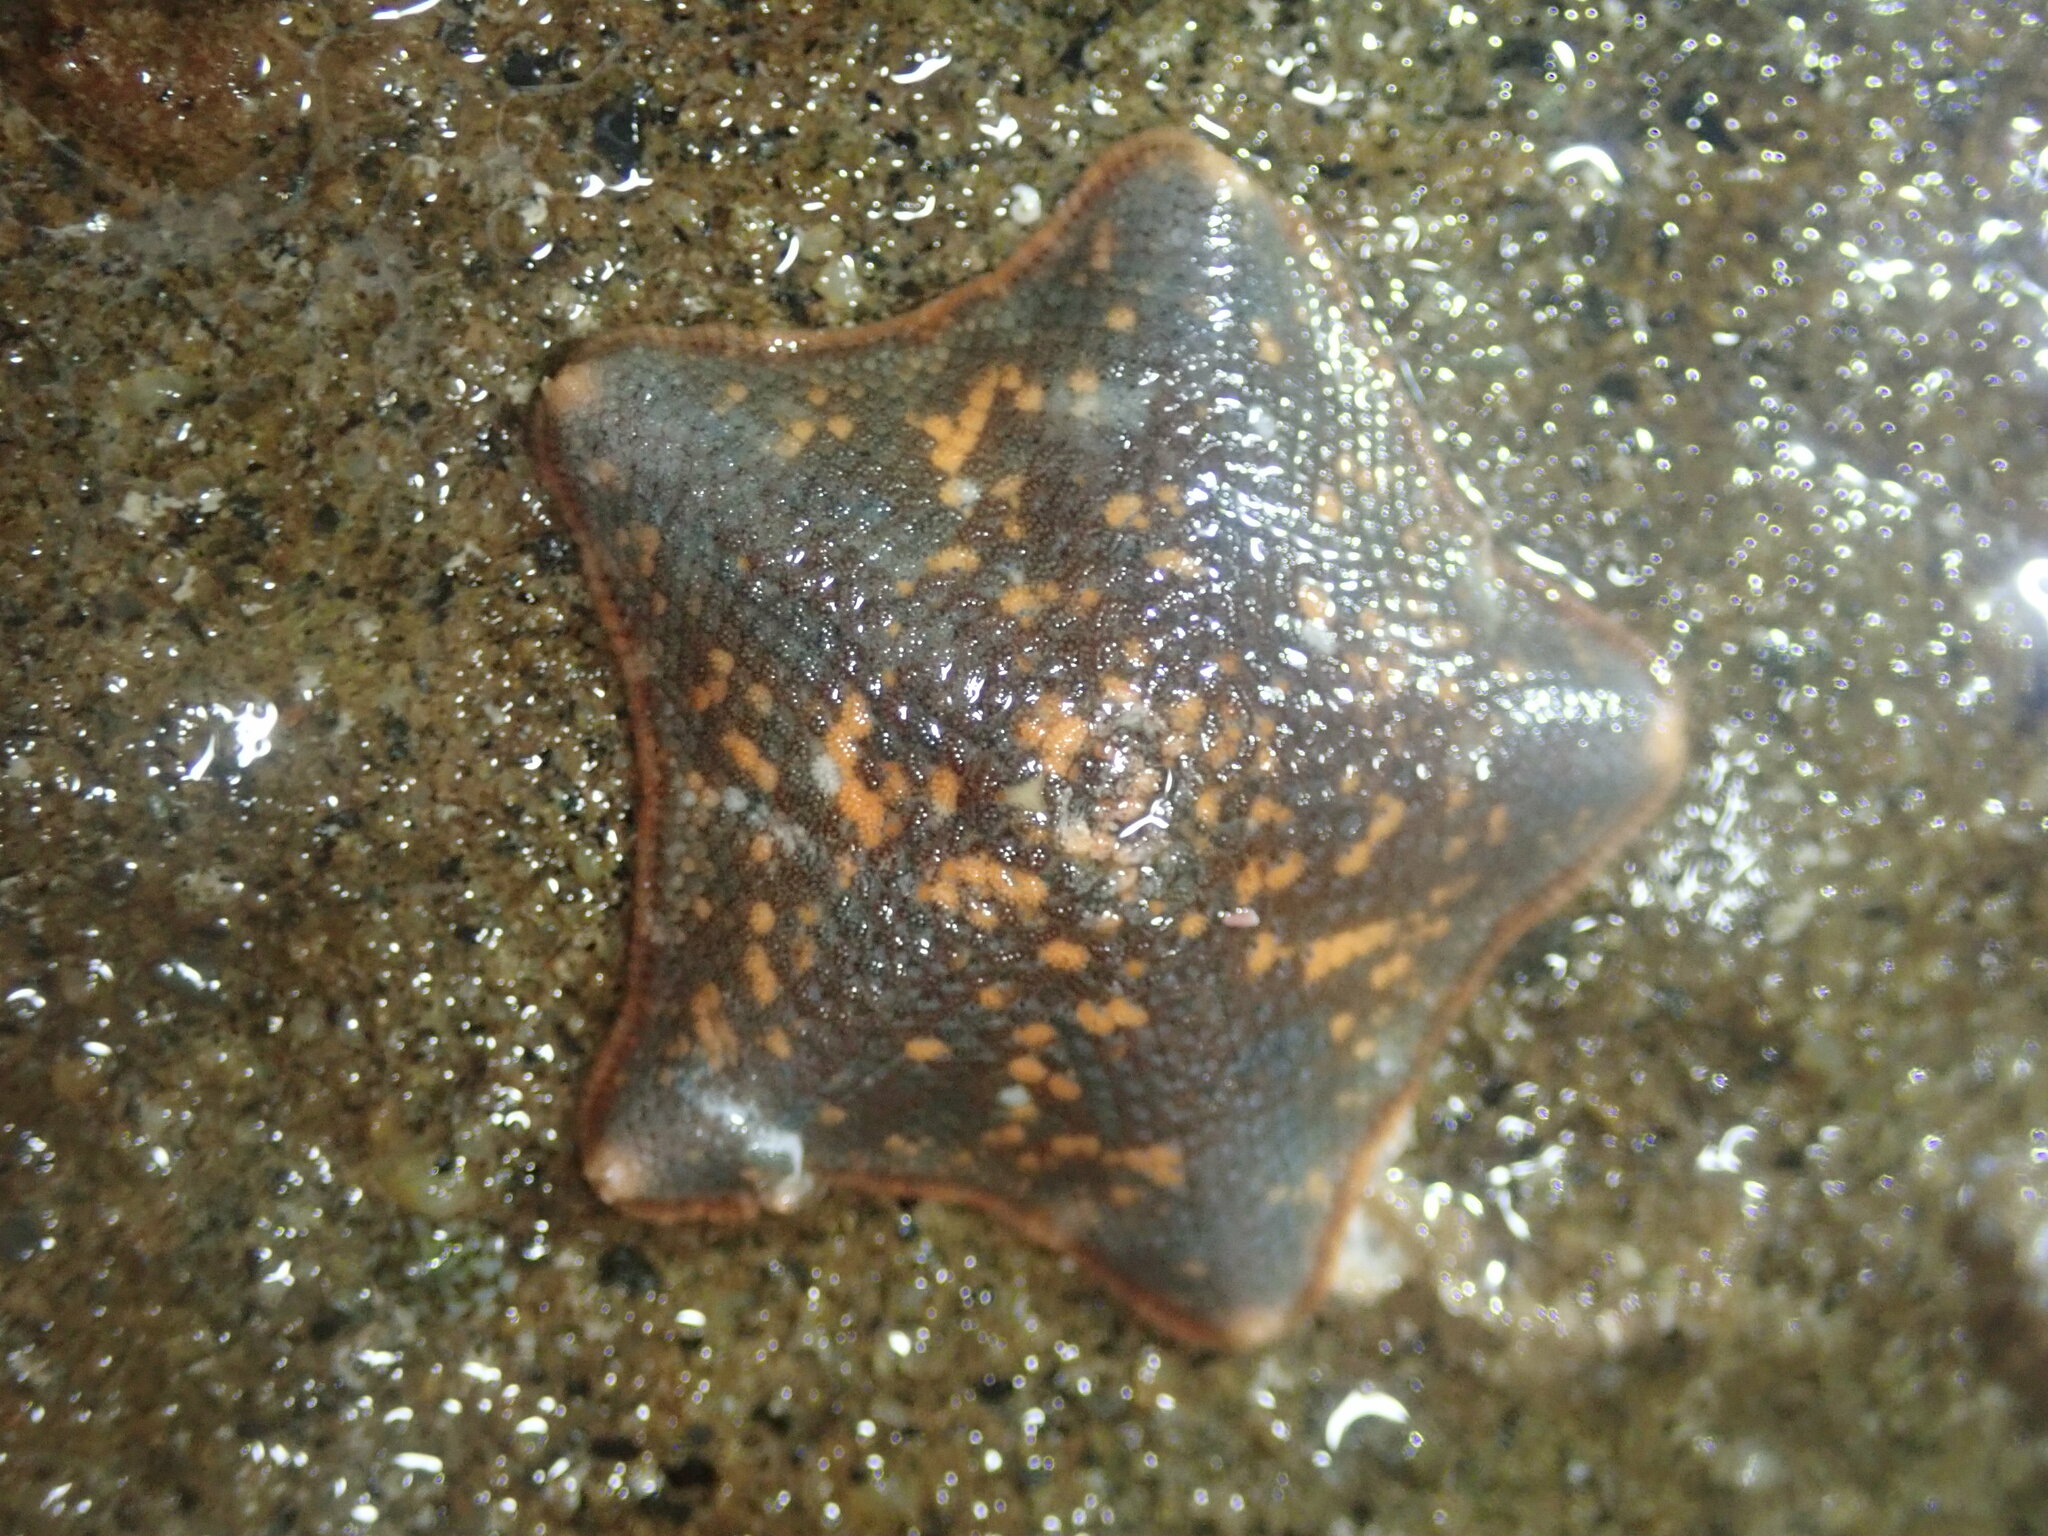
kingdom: Animalia
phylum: Echinodermata
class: Asteroidea
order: Valvatida
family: Asterinidae
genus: Patiria
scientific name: Patiria miniata
